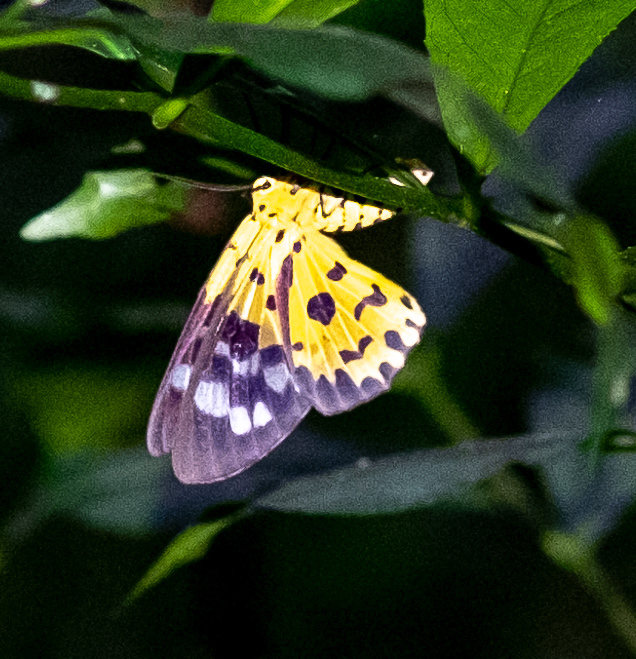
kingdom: Animalia
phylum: Arthropoda
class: Insecta
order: Lepidoptera
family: Geometridae
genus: Dysphania
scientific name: Dysphania militaris
